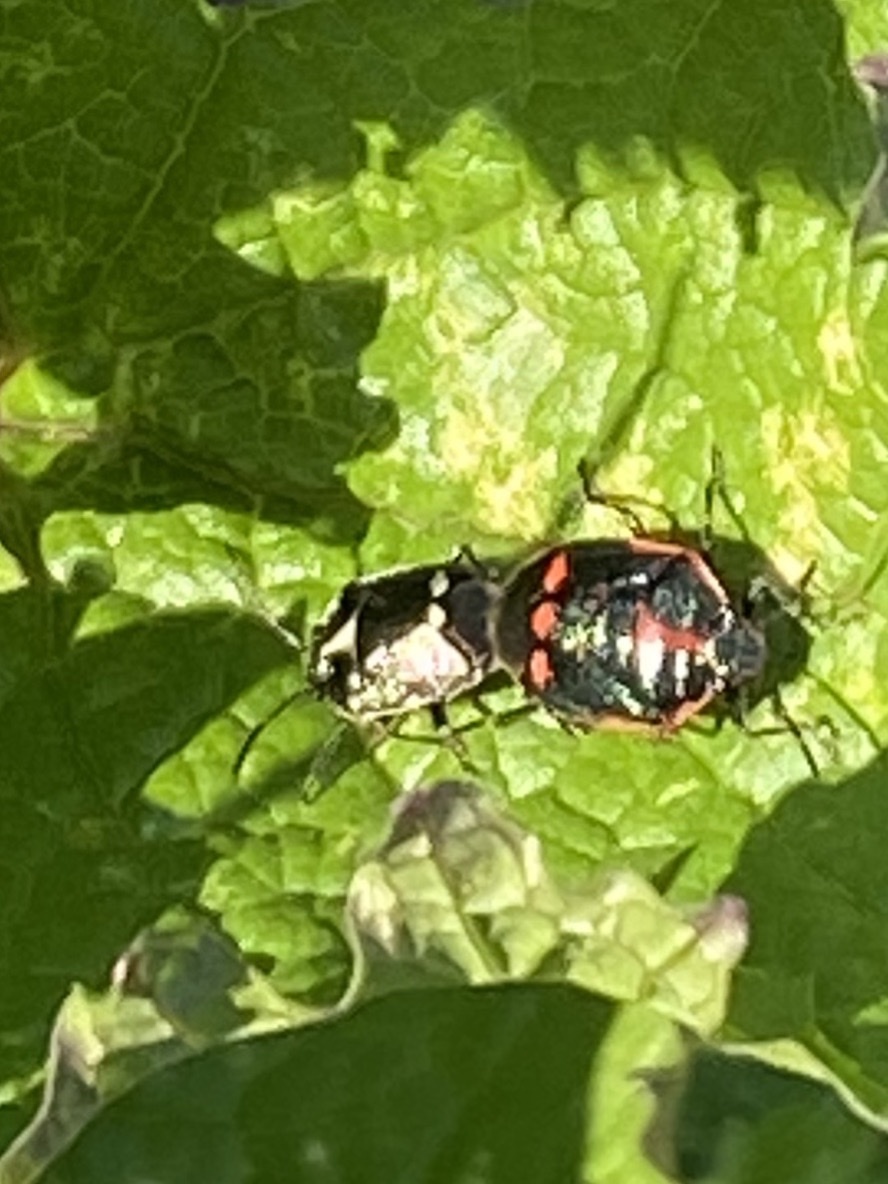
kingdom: Animalia
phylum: Arthropoda
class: Insecta
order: Hemiptera
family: Pentatomidae
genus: Eurydema
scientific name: Eurydema oleracea
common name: Cabbage bug
